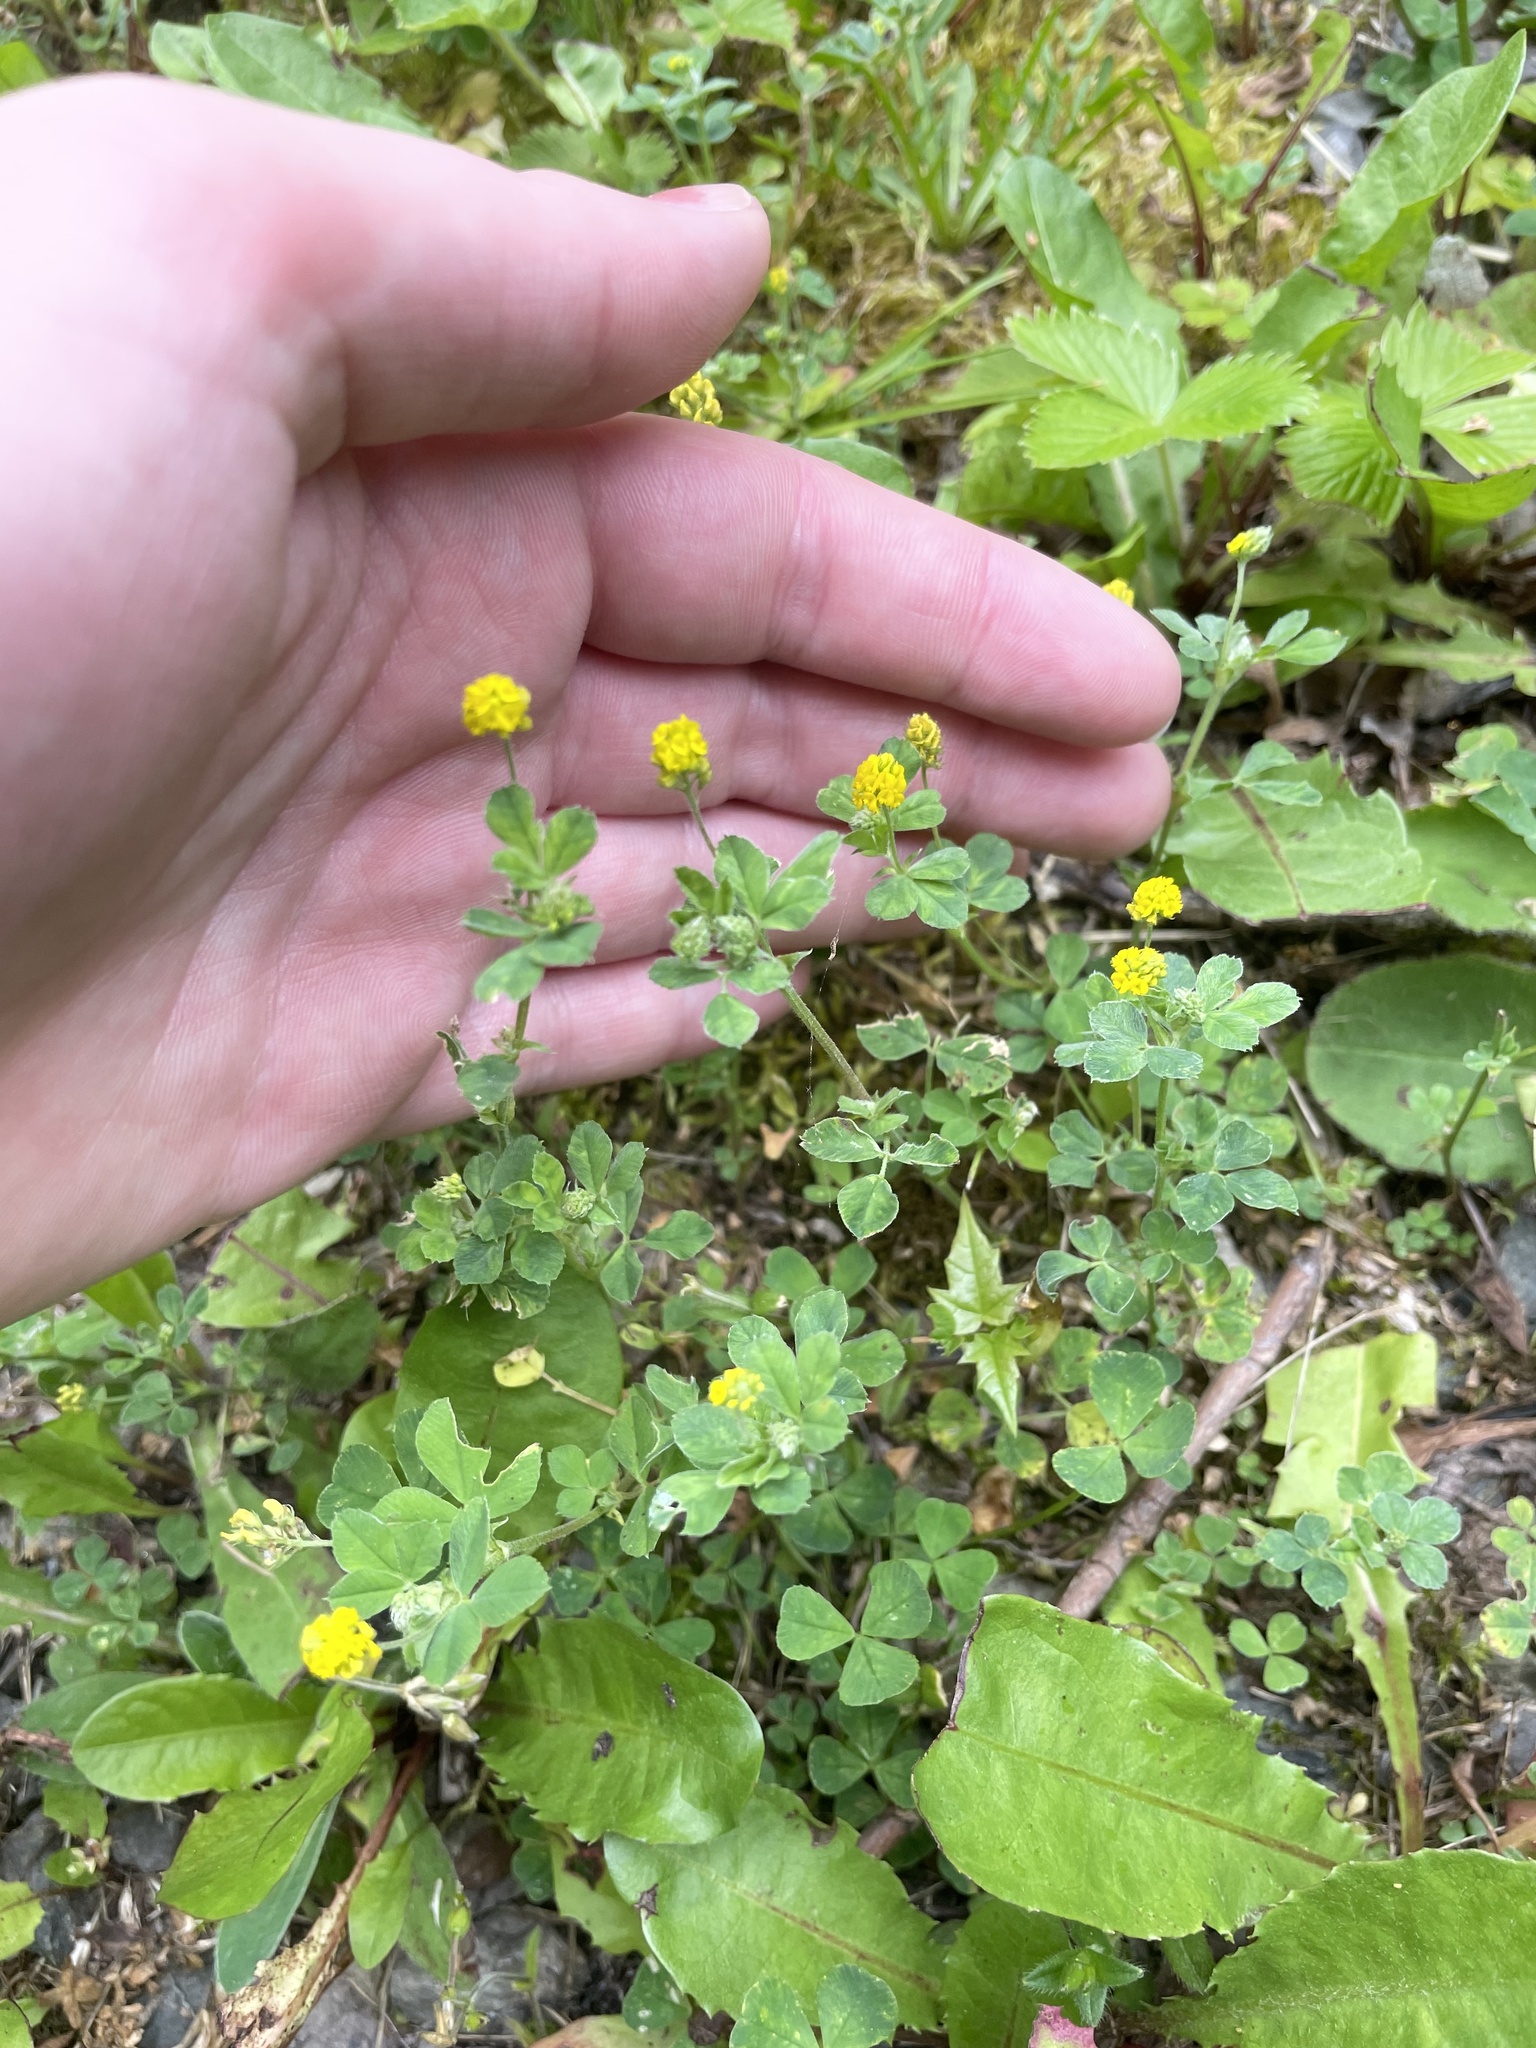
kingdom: Plantae
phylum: Tracheophyta
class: Magnoliopsida
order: Fabales
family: Fabaceae
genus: Medicago
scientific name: Medicago lupulina
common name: Black medick
